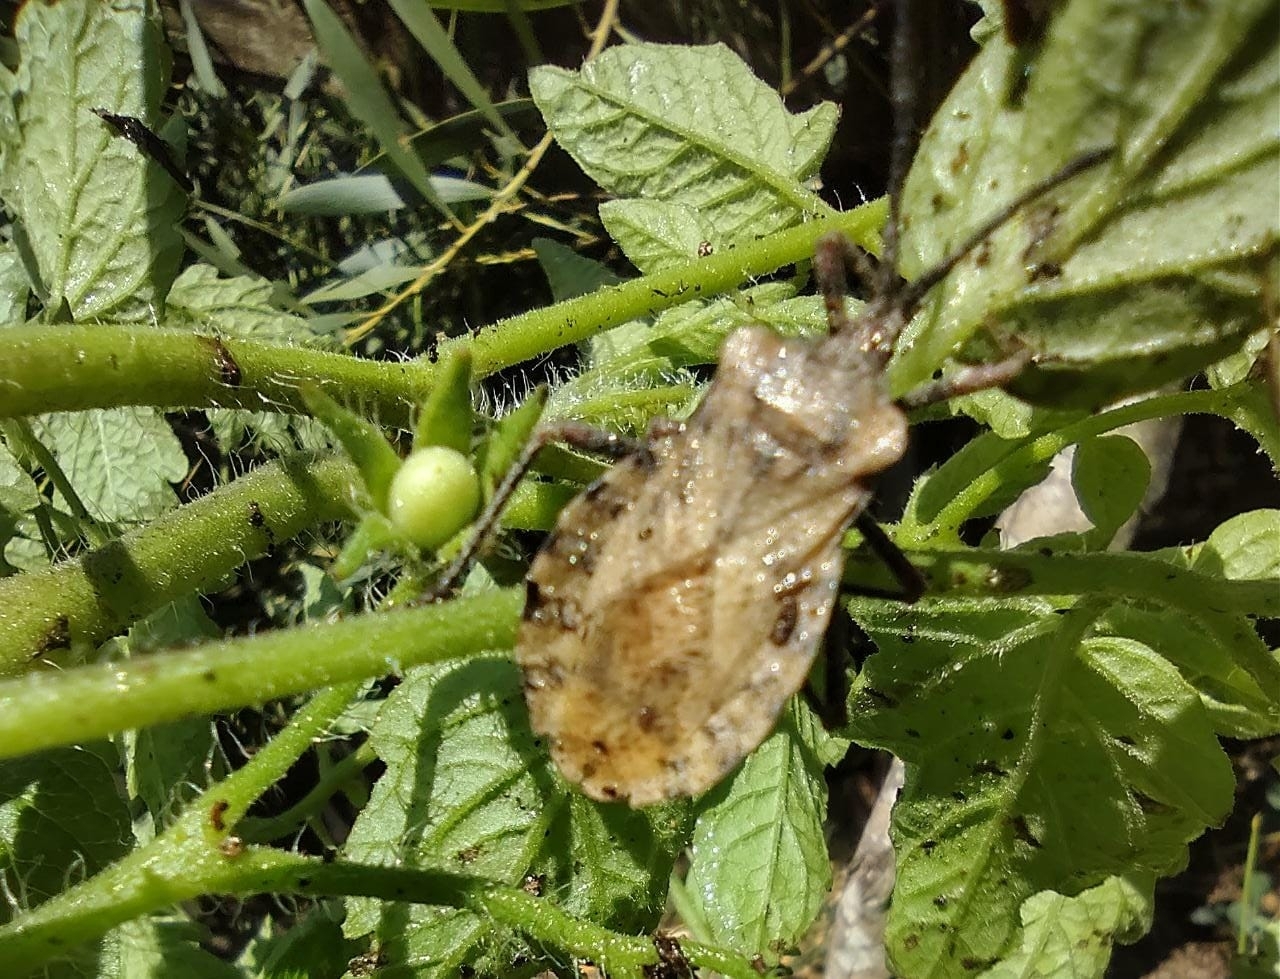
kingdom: Animalia
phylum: Arthropoda
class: Insecta
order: Hemiptera
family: Coreidae
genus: Spartocera
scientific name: Spartocera fusca
